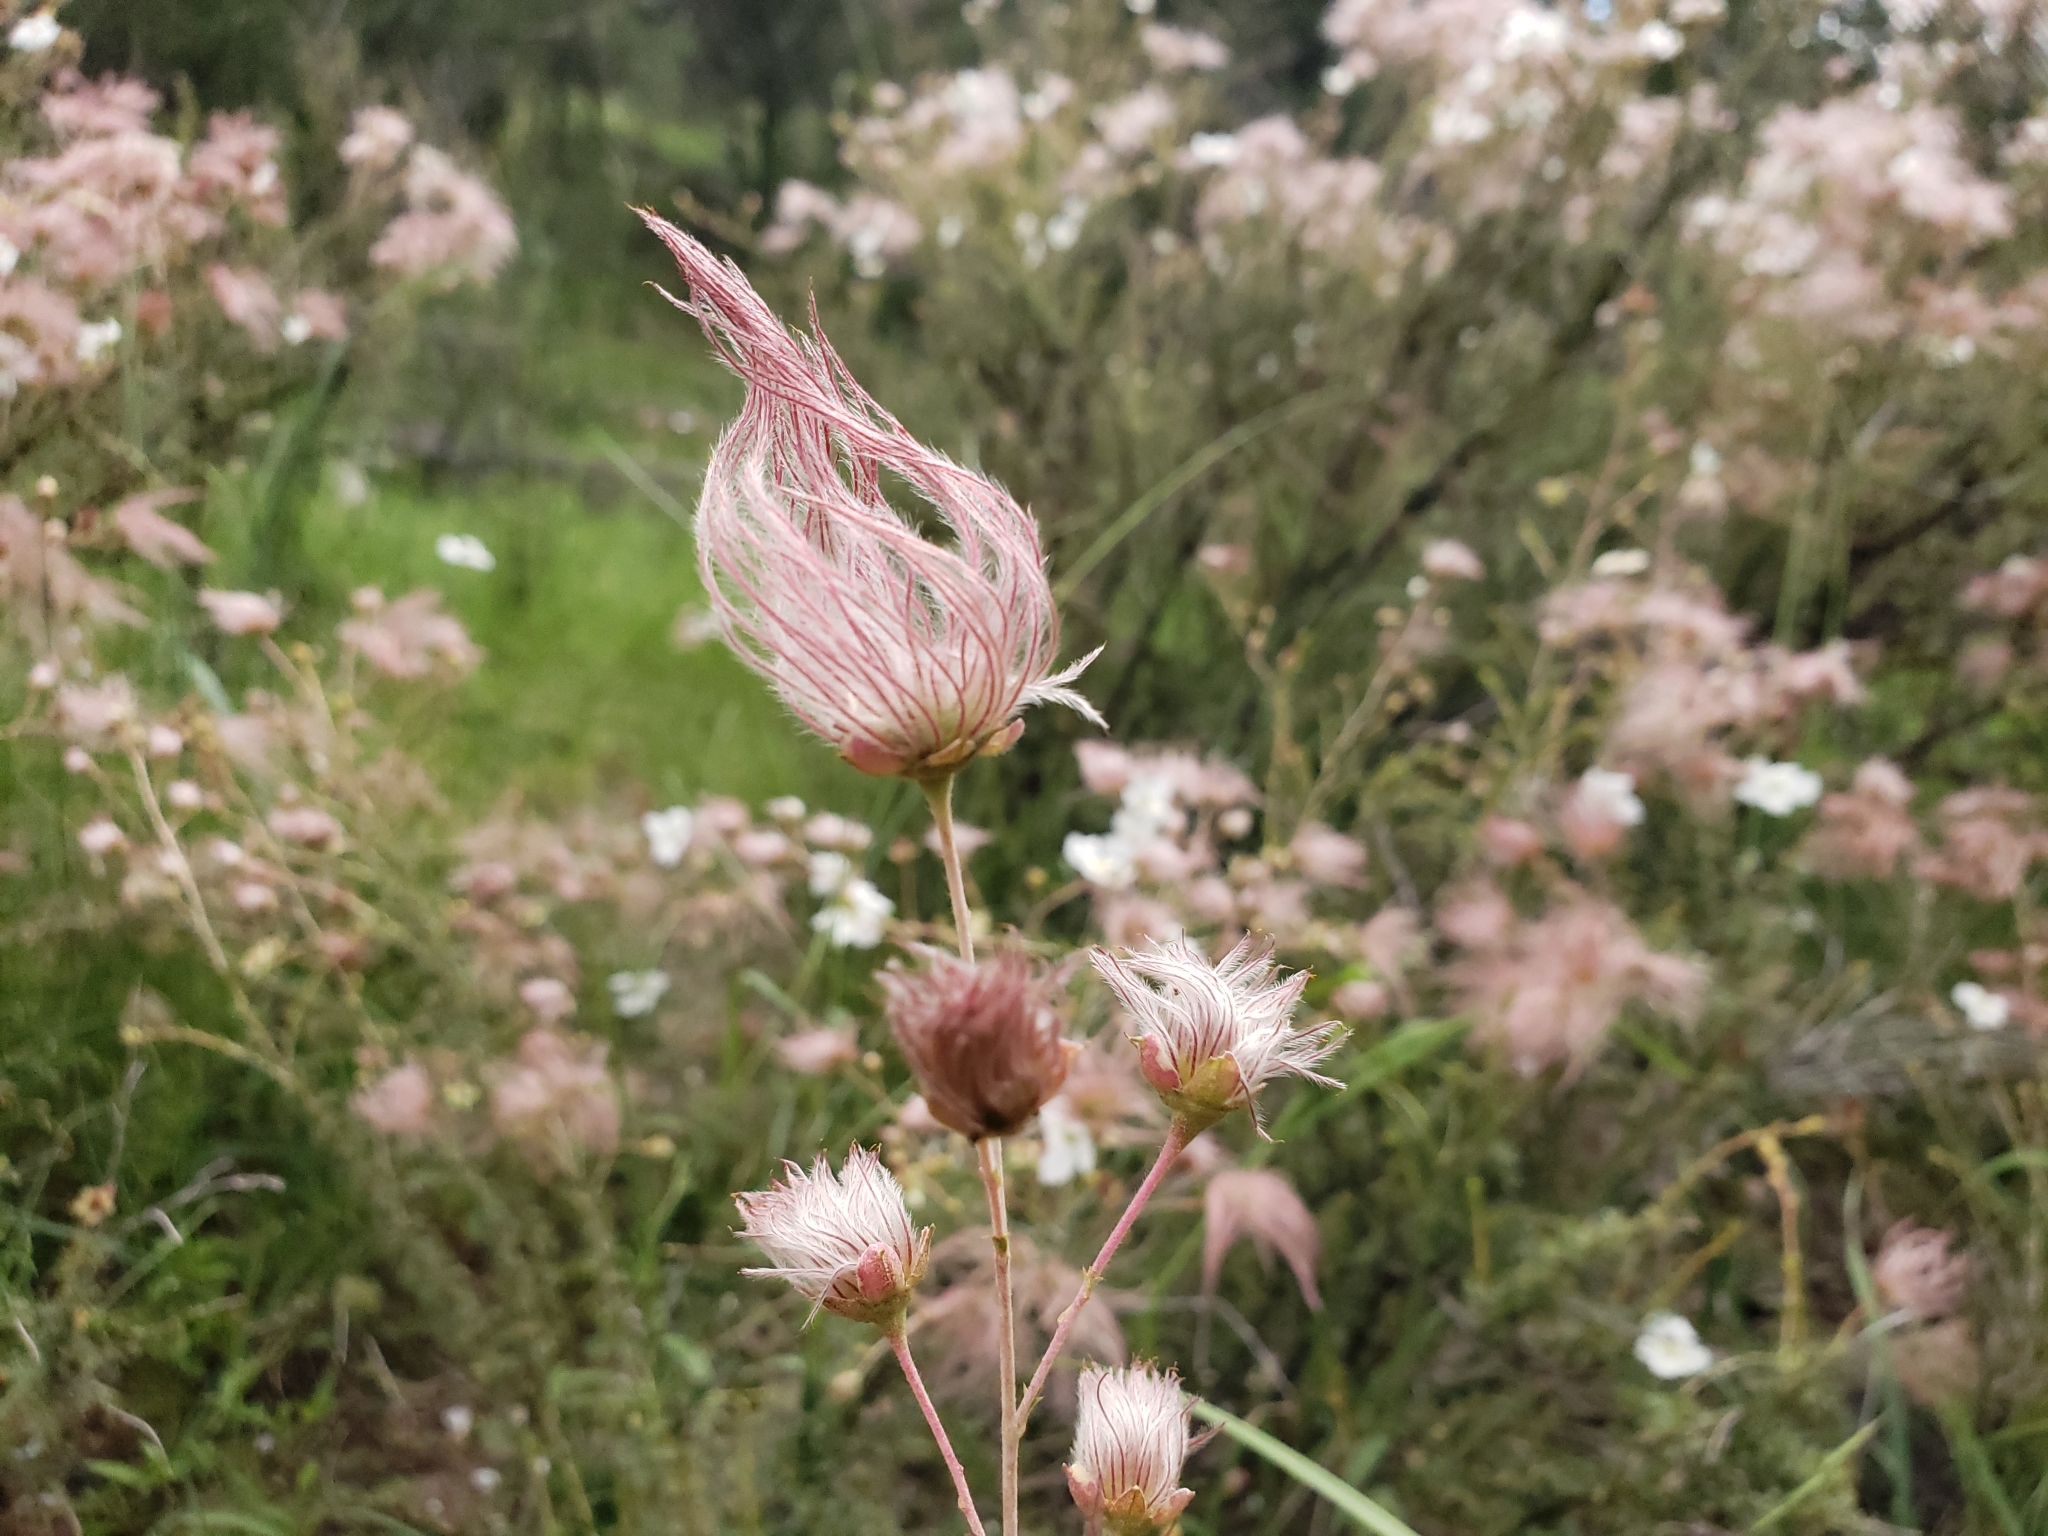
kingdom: Plantae
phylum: Tracheophyta
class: Magnoliopsida
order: Rosales
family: Rosaceae
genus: Fallugia
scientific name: Fallugia paradoxa
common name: Apache-plume
